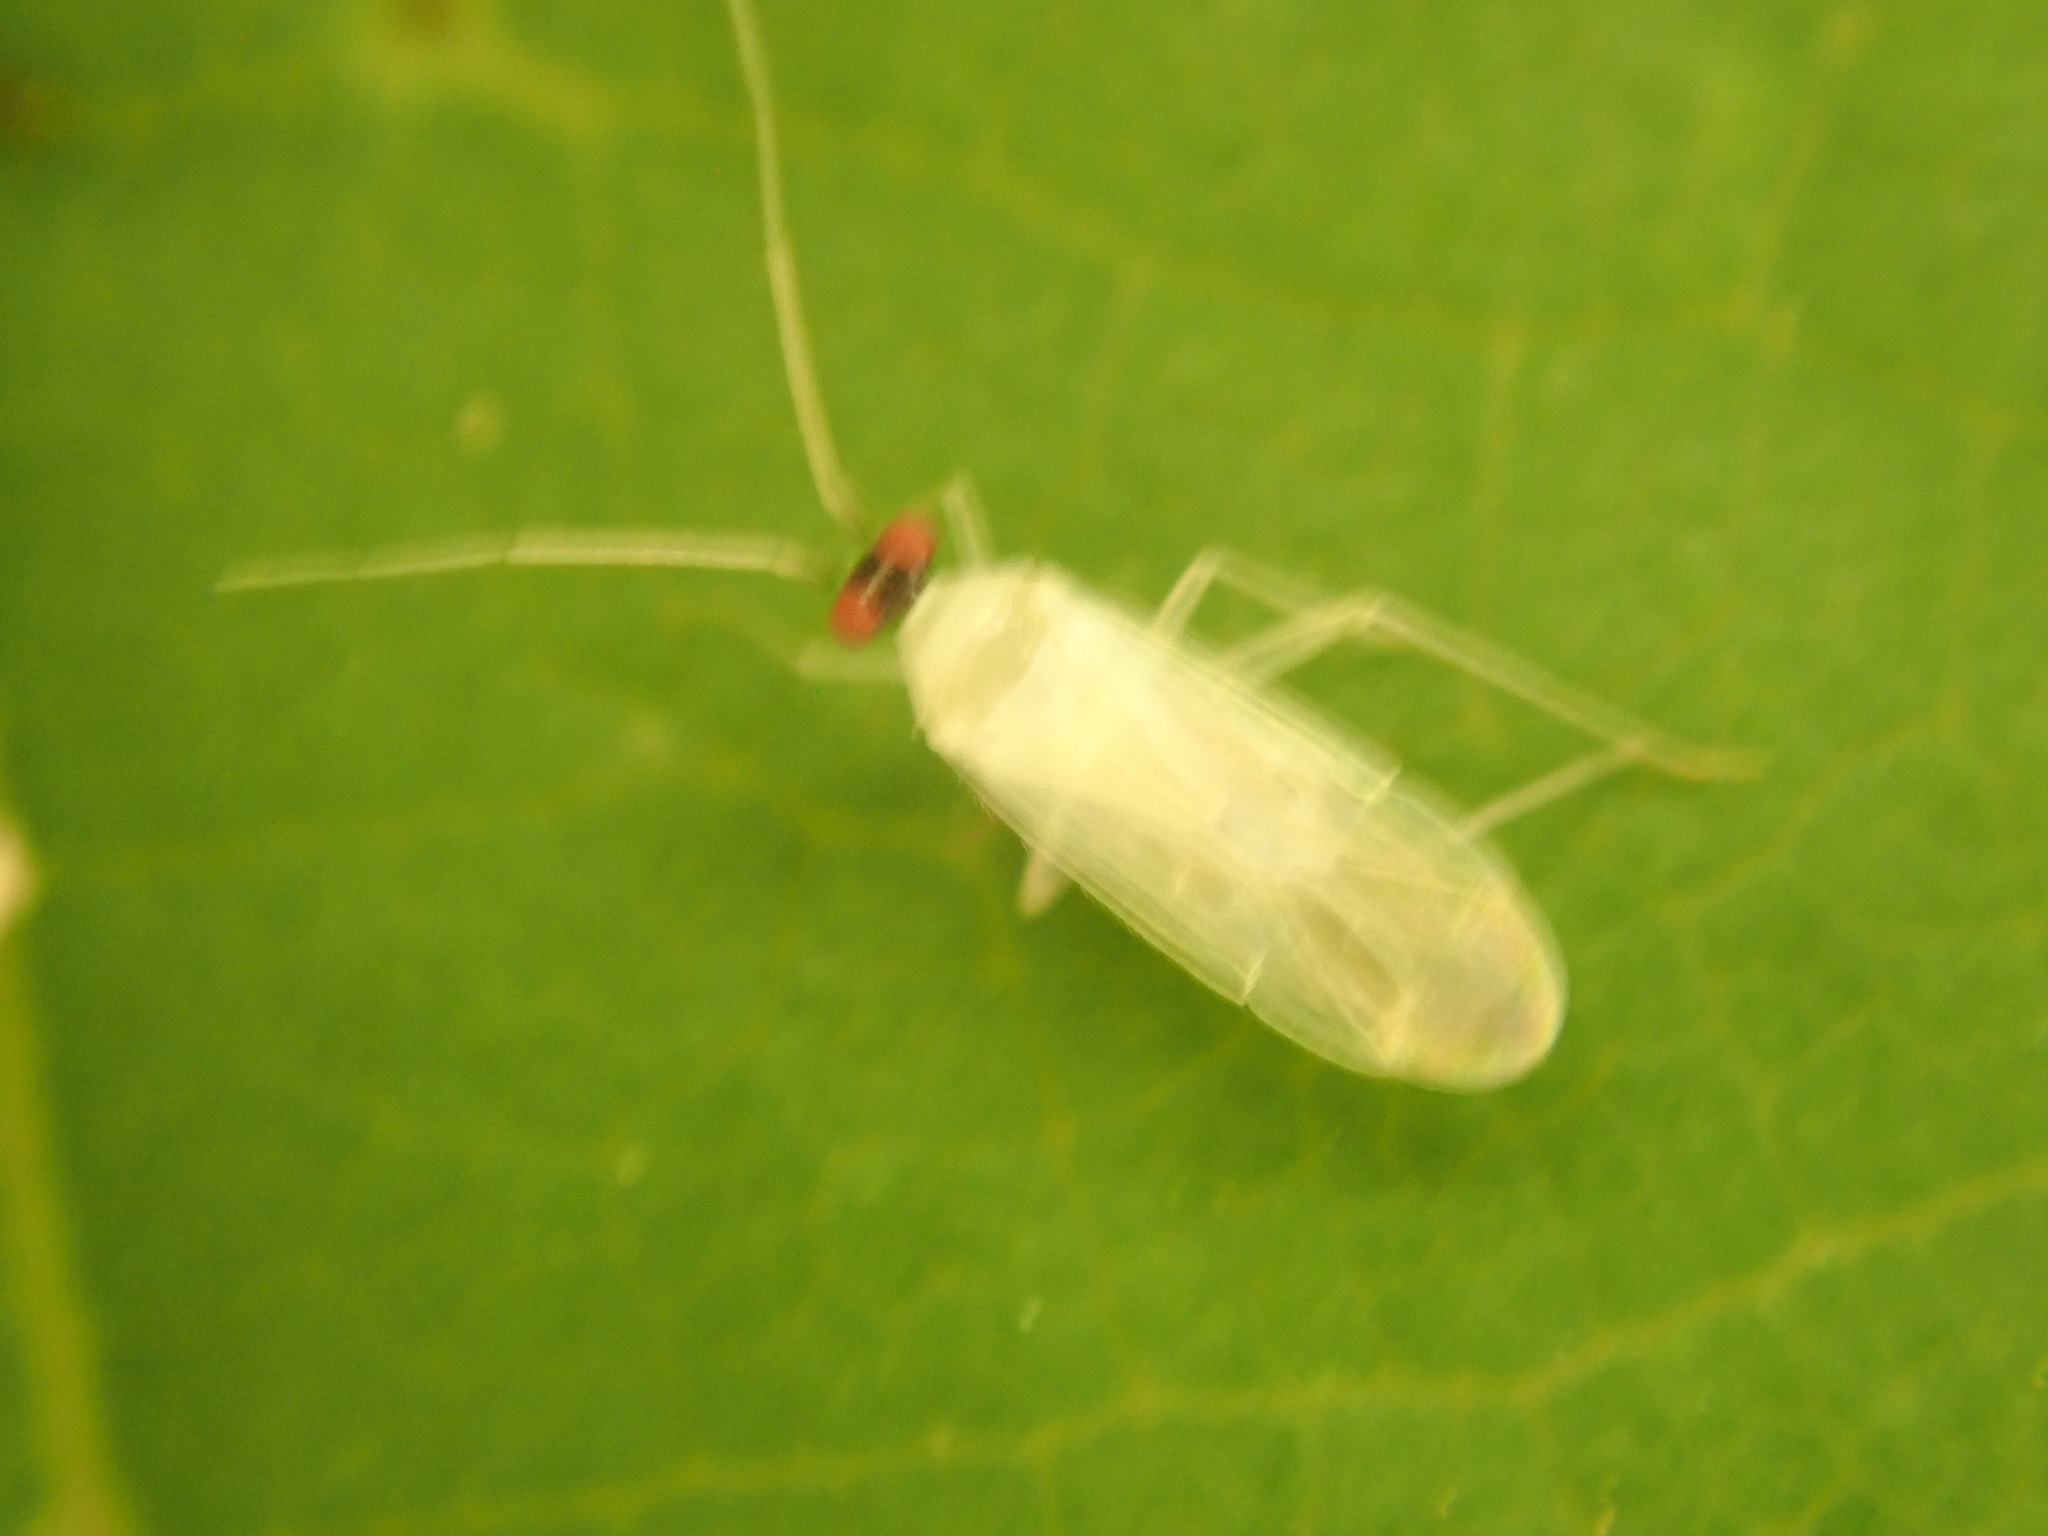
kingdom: Animalia
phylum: Arthropoda
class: Insecta
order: Hemiptera
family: Miridae
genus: Paraproba
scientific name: Paraproba capitata
